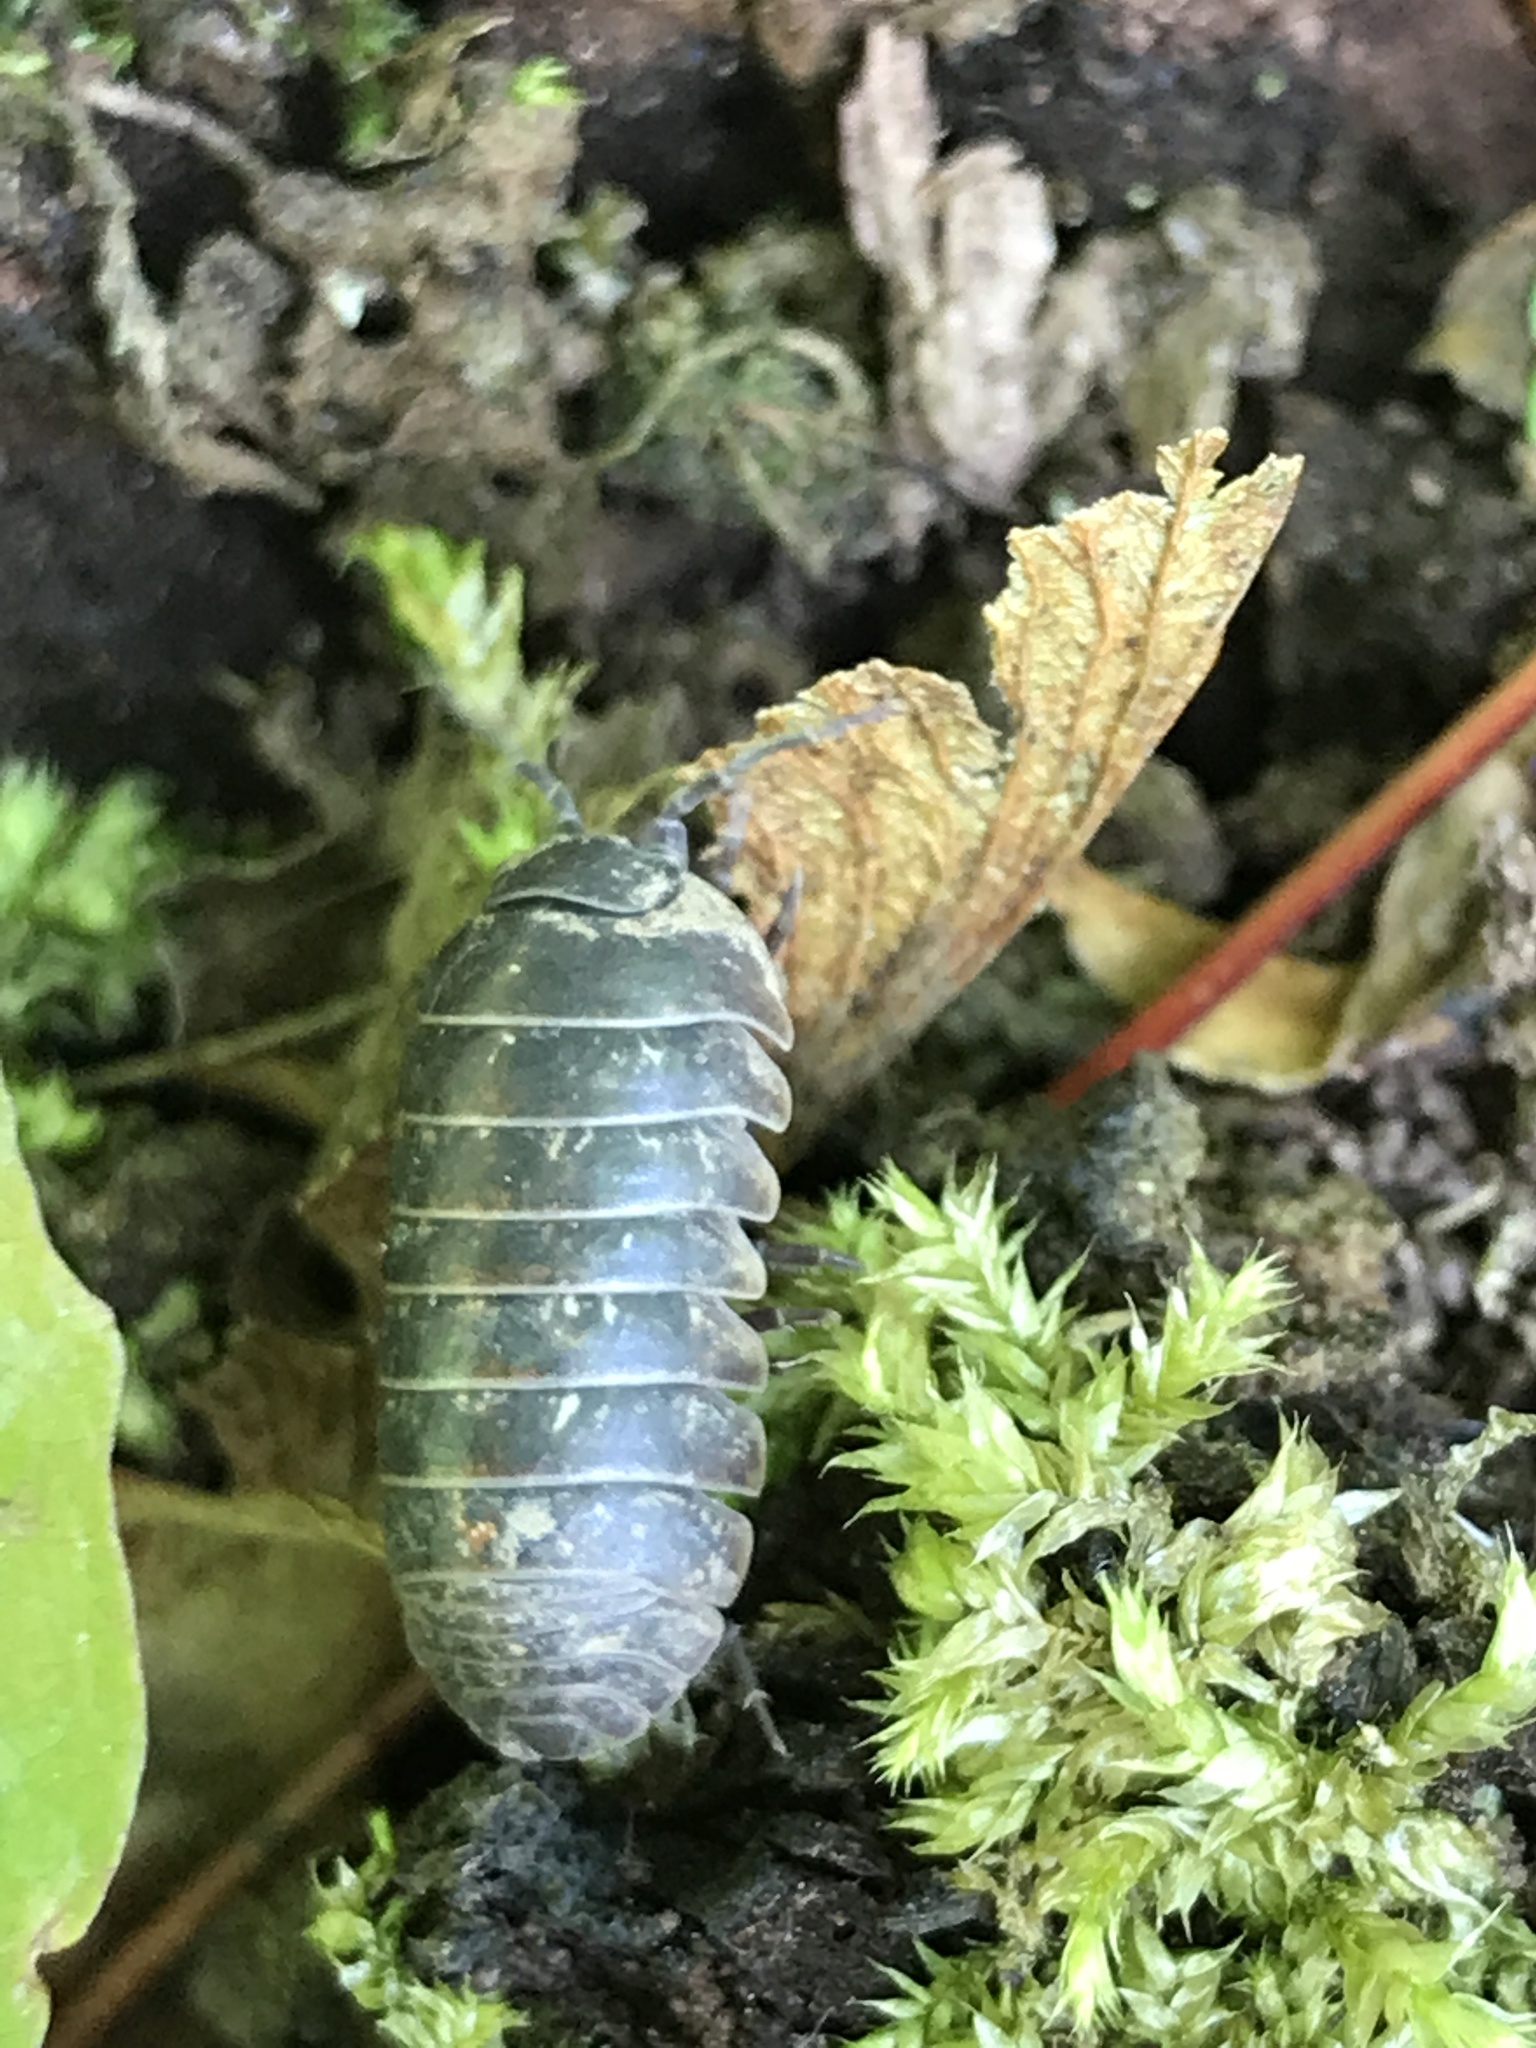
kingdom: Animalia
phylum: Arthropoda
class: Malacostraca
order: Isopoda
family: Armadillidiidae
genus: Armadillidium
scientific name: Armadillidium vulgare
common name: Common pill woodlouse
